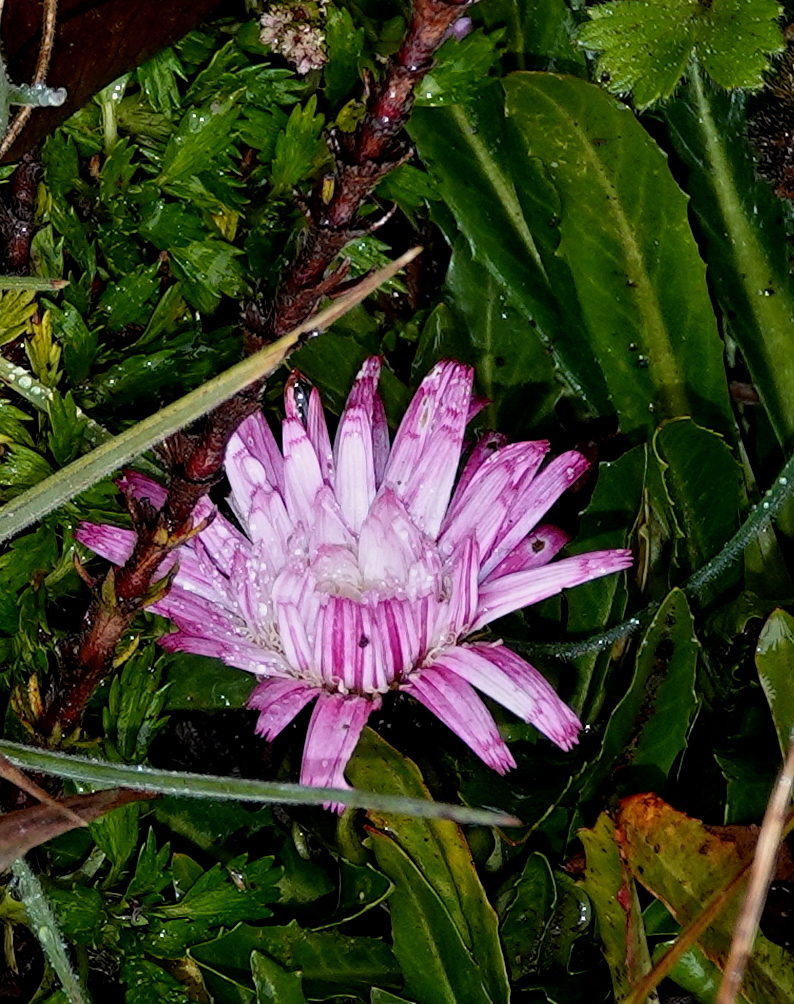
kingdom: Plantae
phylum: Tracheophyta
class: Magnoliopsida
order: Asterales
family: Asteraceae
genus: Hypochaeris
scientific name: Hypochaeris sessiliflora
